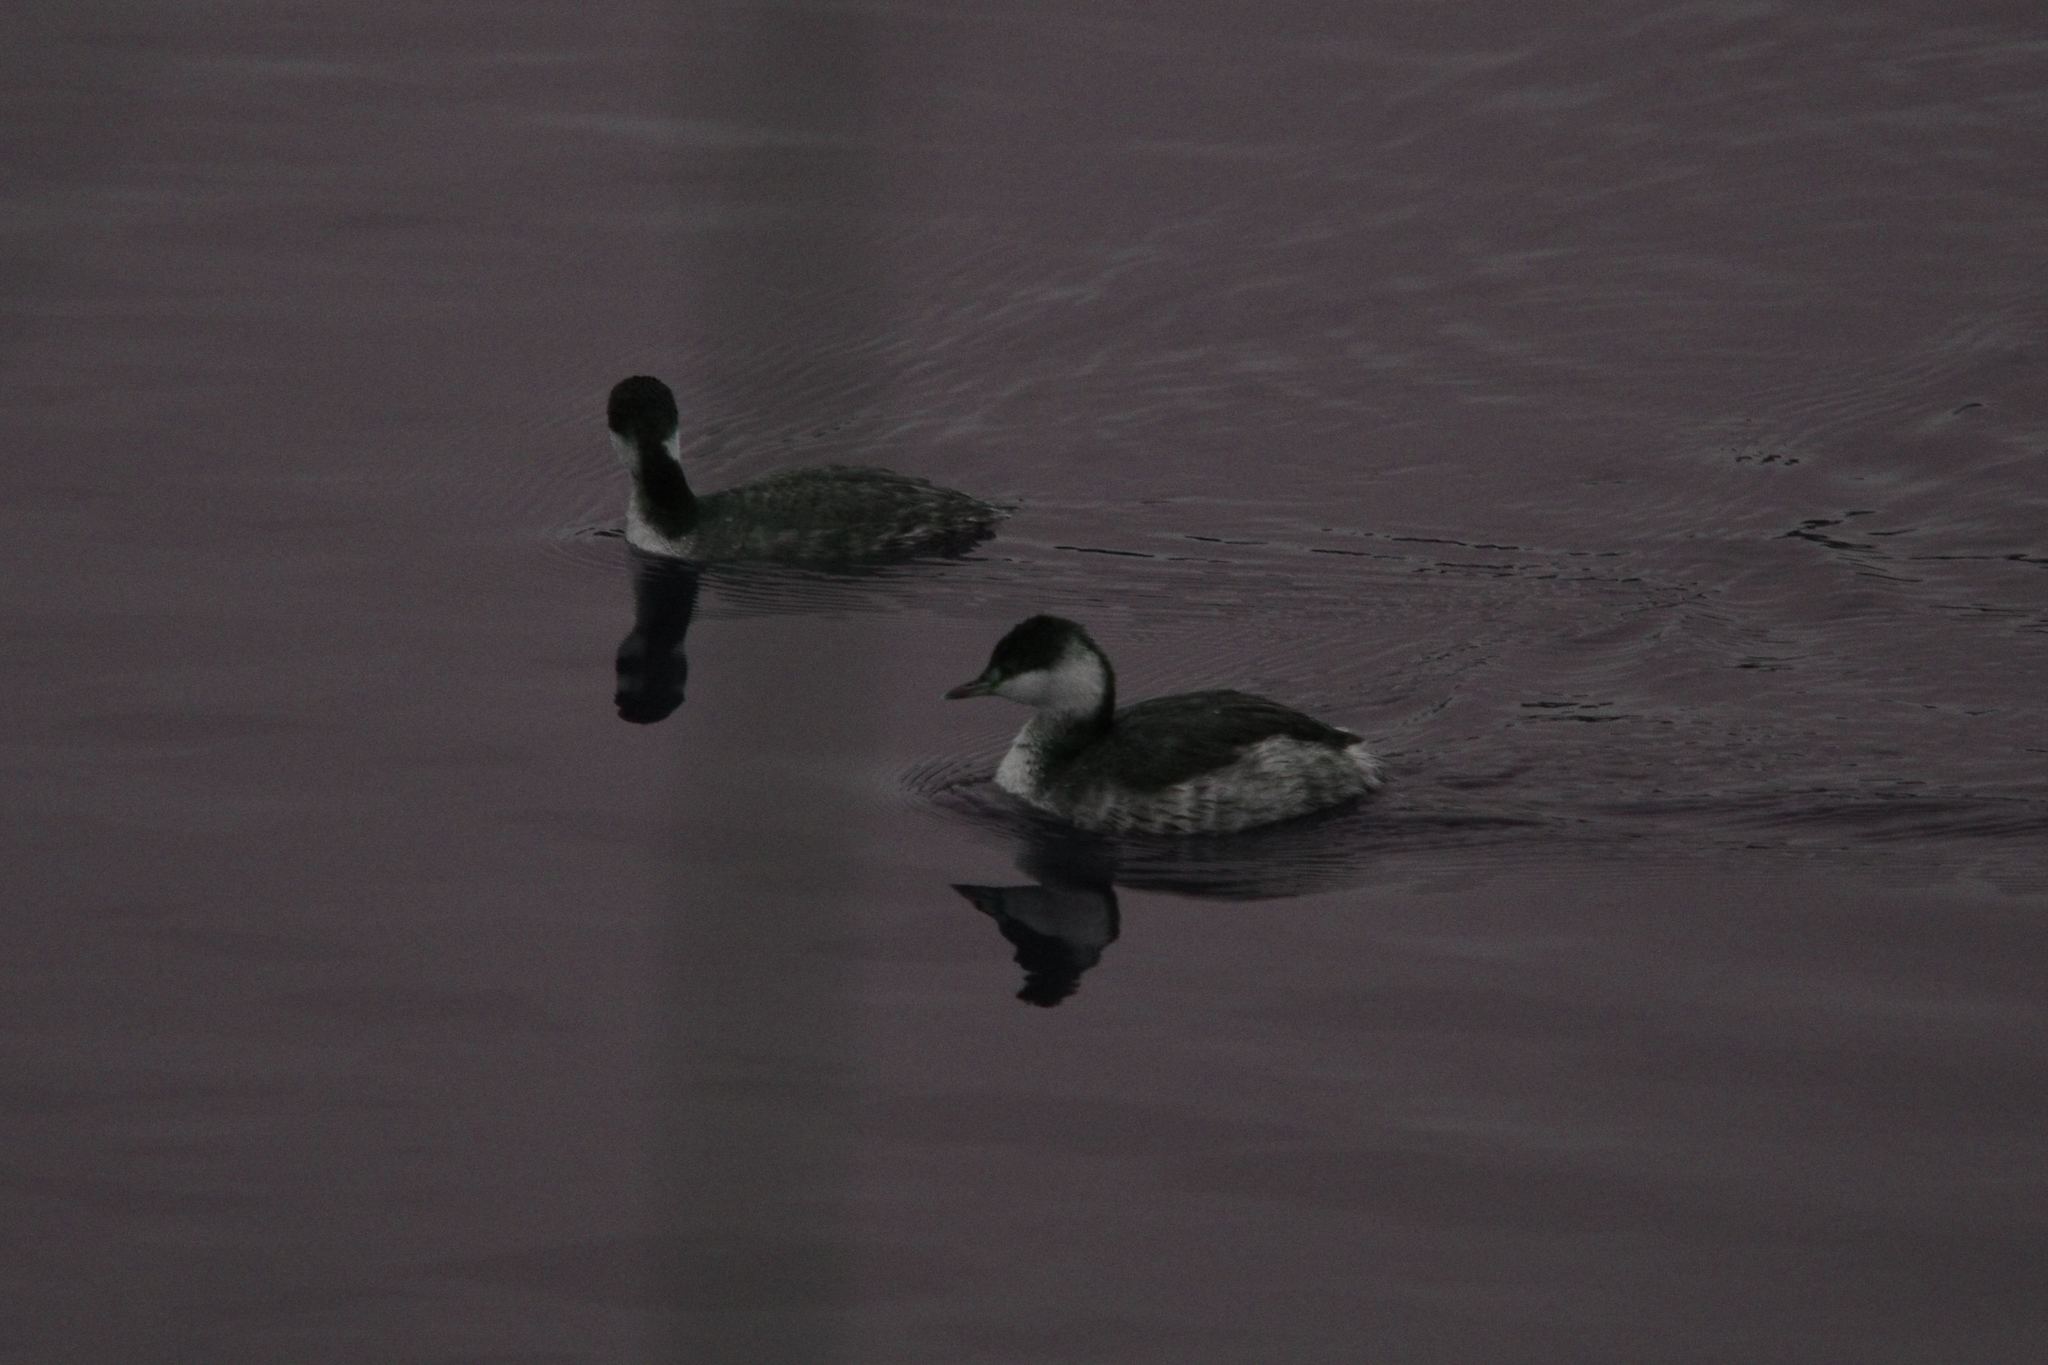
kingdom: Animalia
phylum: Chordata
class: Aves
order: Podicipediformes
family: Podicipedidae
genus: Podiceps
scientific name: Podiceps nigricollis
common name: Black-necked grebe
